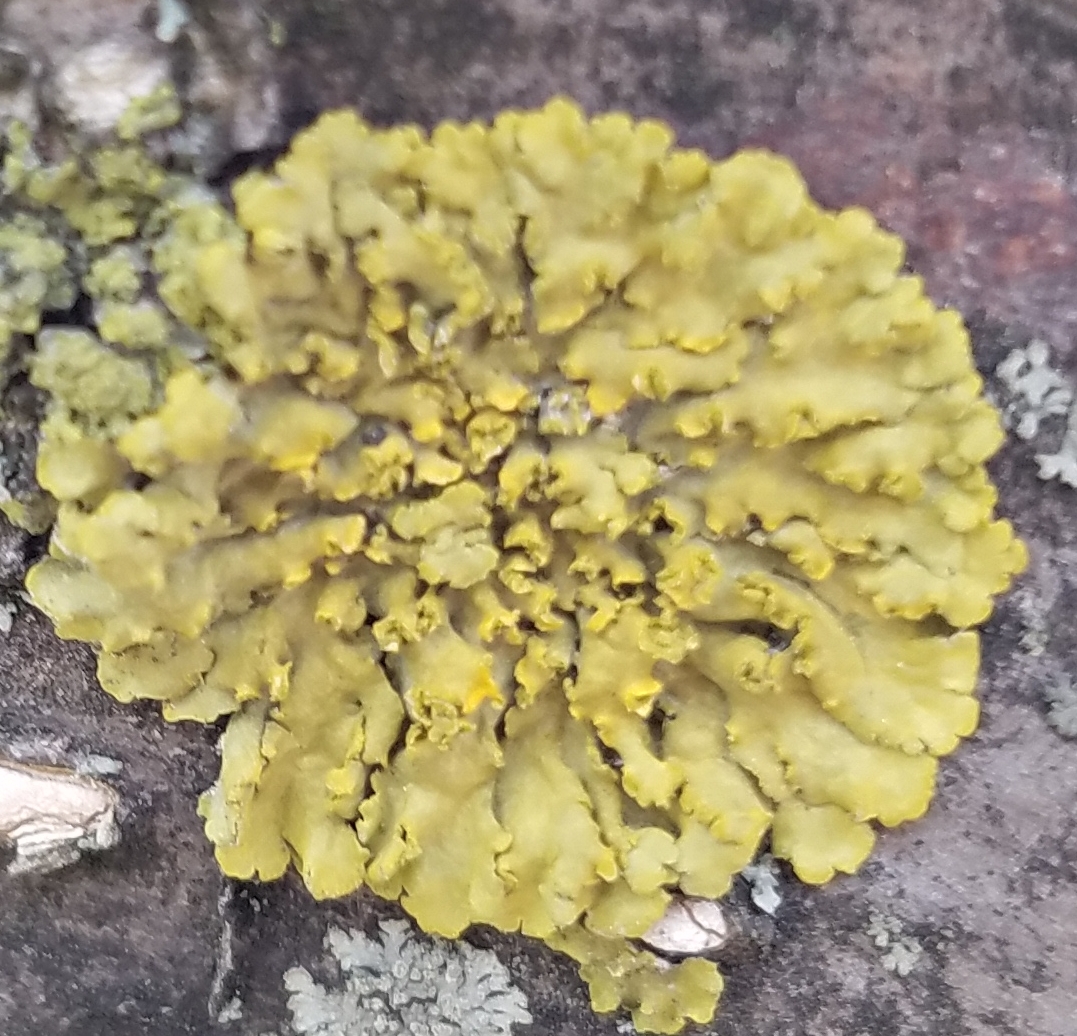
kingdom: Fungi
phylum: Ascomycota
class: Lecanoromycetes
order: Teloschistales
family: Teloschistaceae
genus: Oxneria
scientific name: Oxneria fallax
